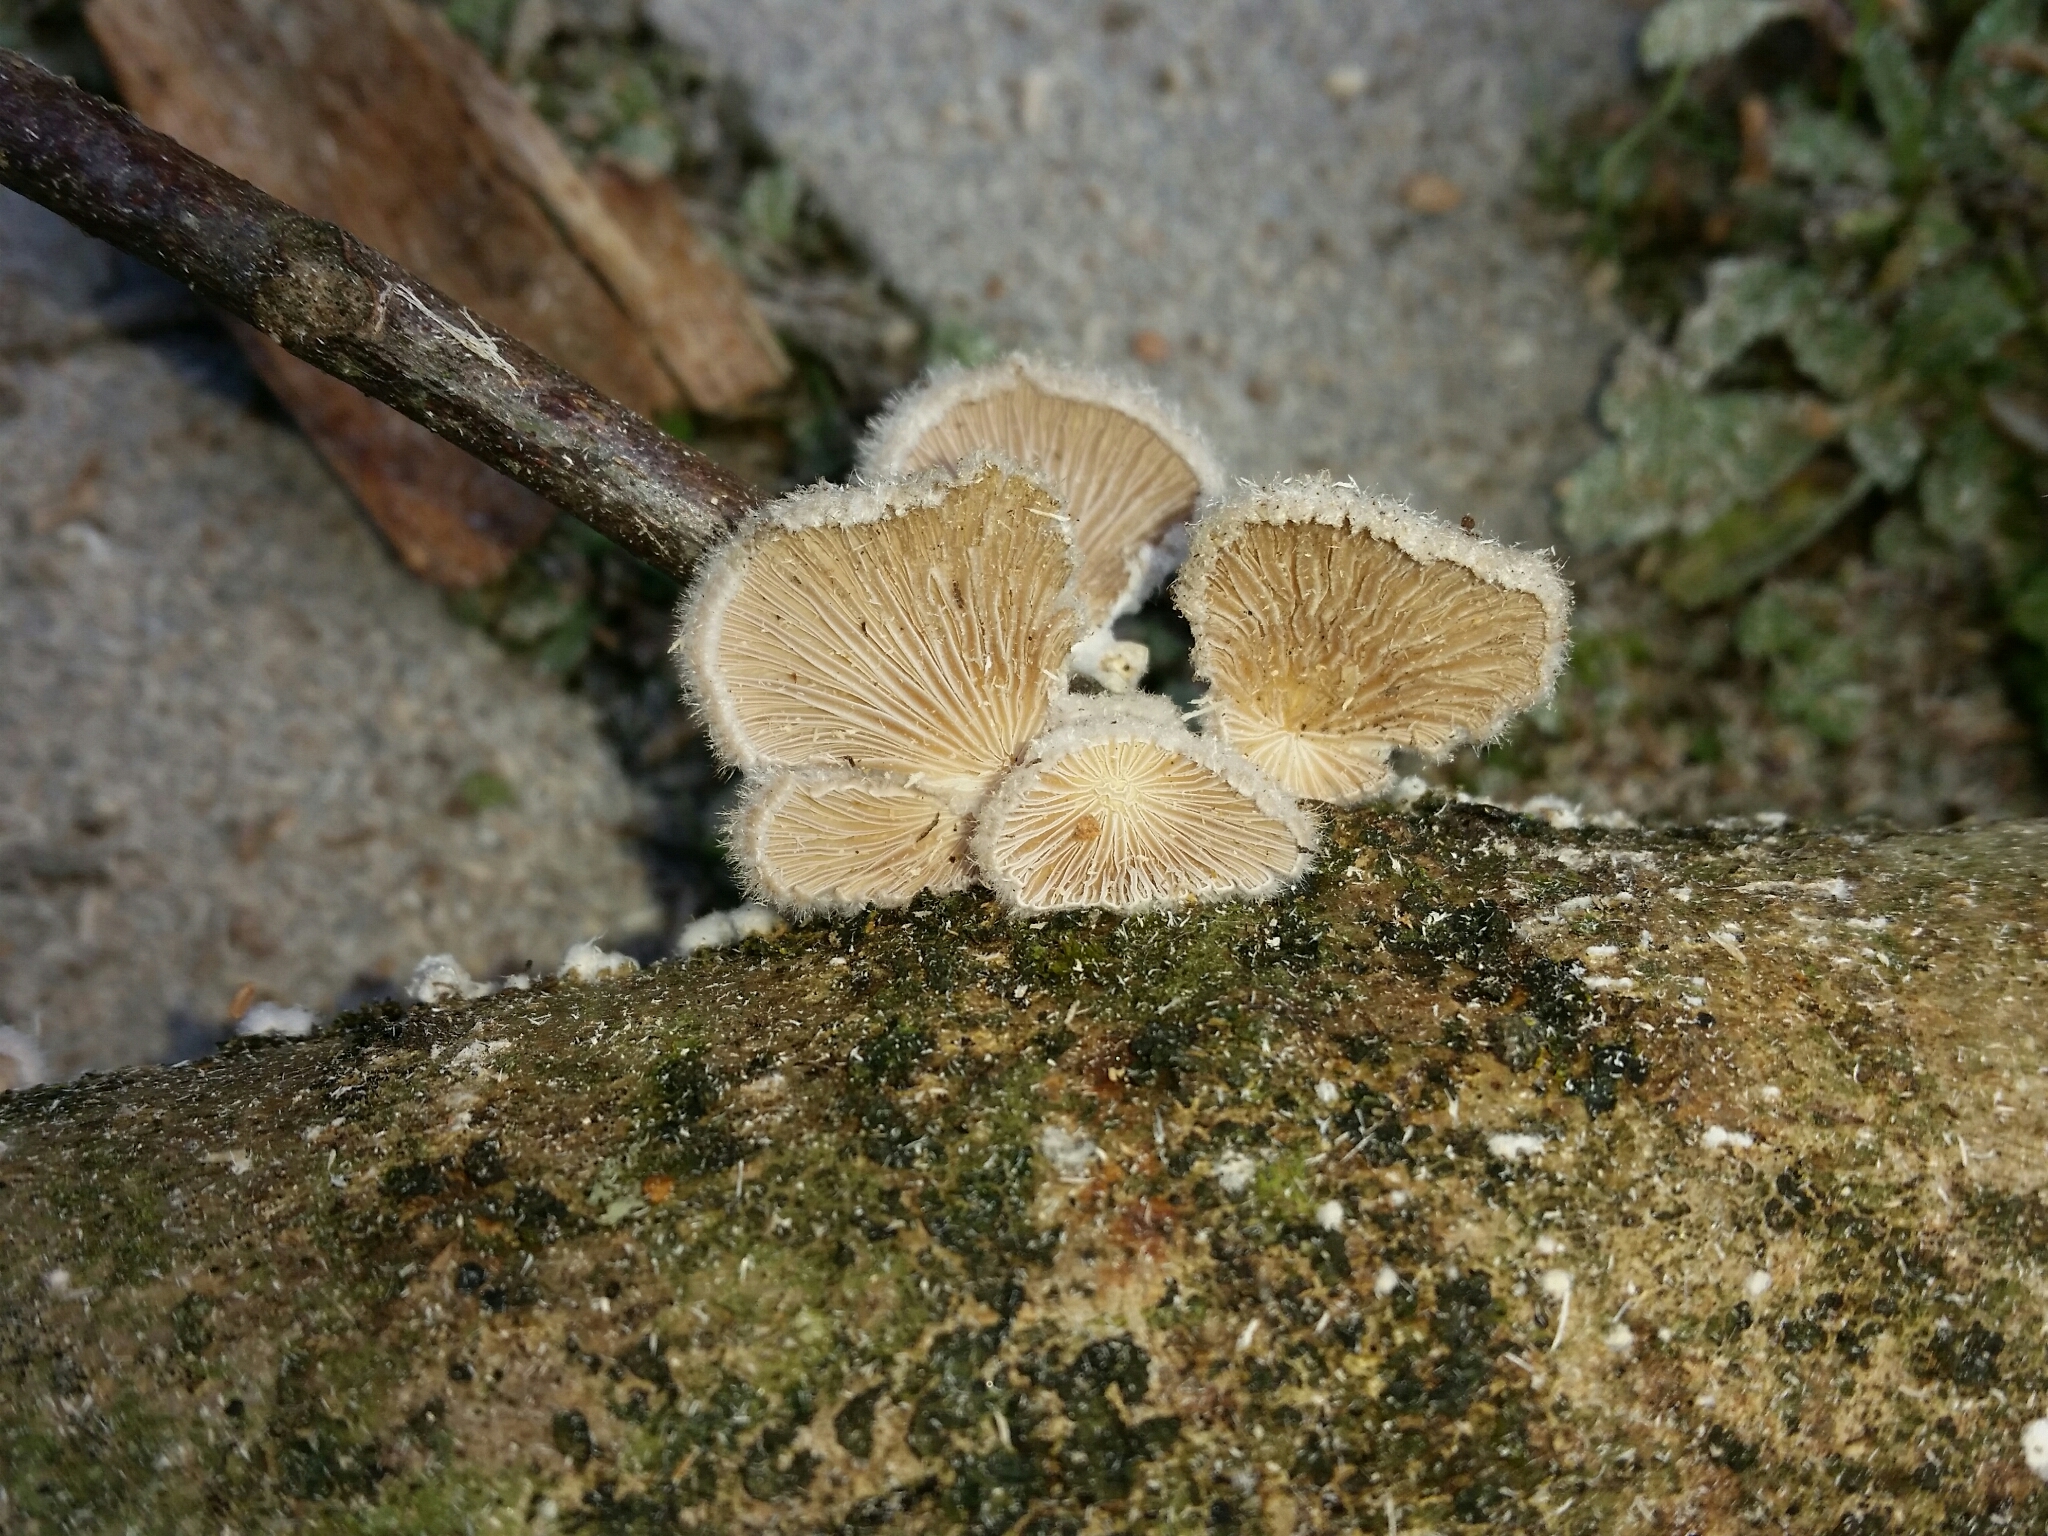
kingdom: Fungi
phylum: Basidiomycota
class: Agaricomycetes
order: Agaricales
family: Schizophyllaceae
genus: Schizophyllum
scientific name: Schizophyllum commune
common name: Common porecrust
